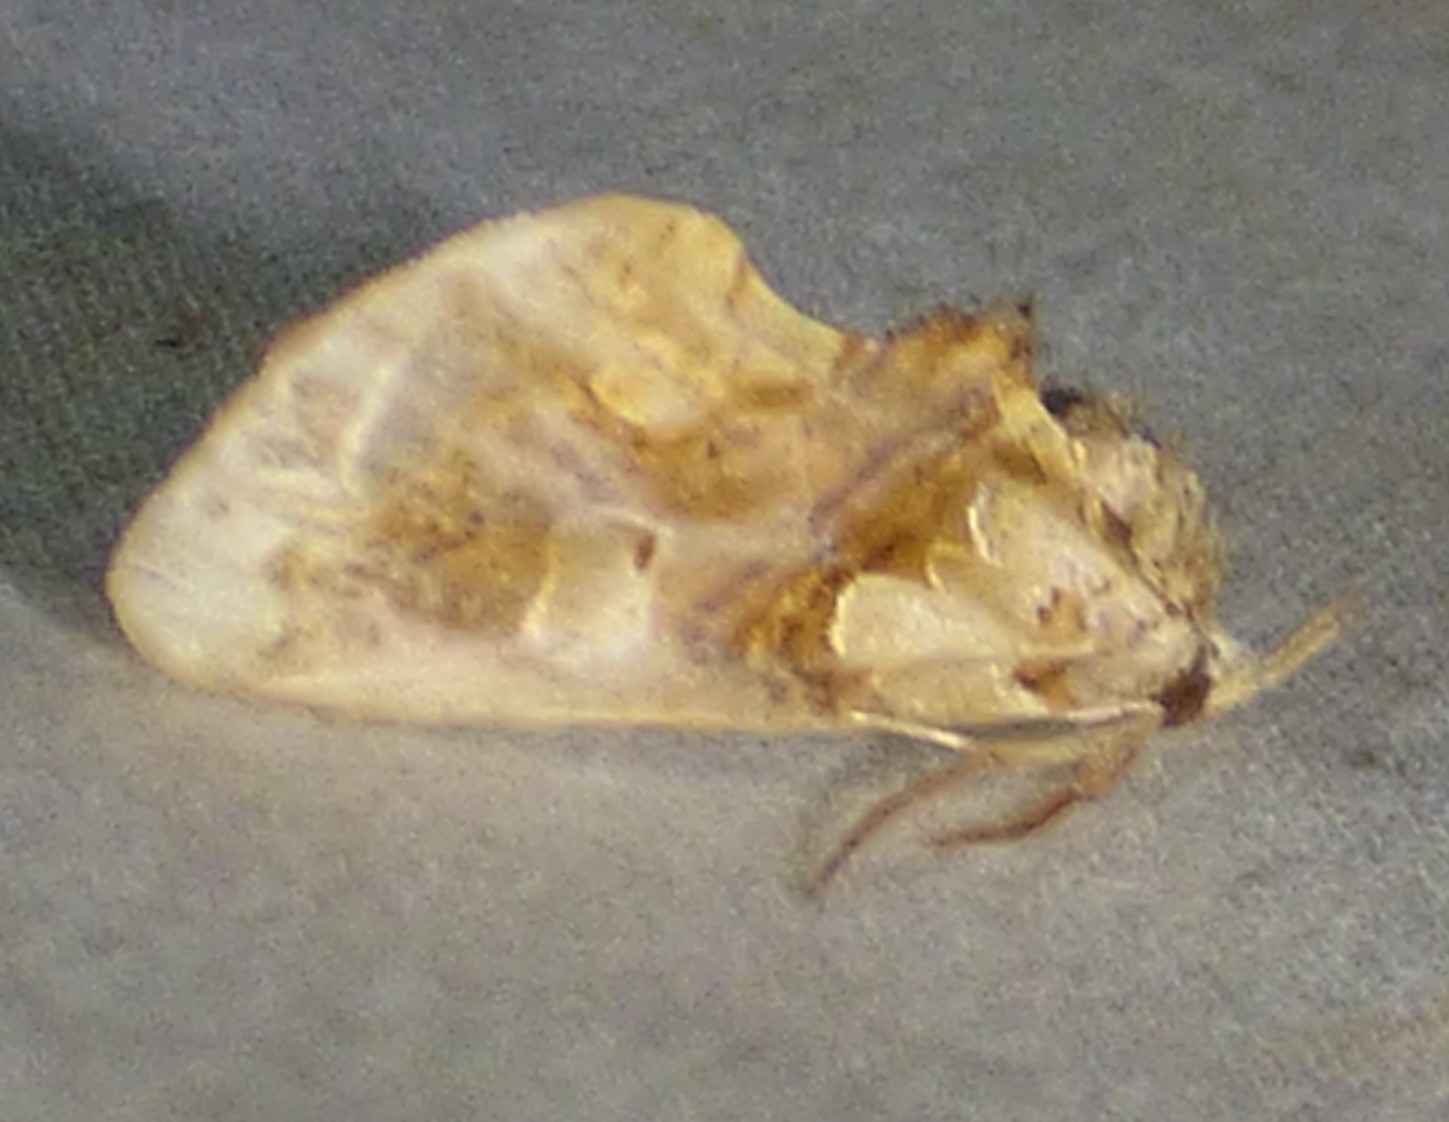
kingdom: Animalia
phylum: Arthropoda
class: Insecta
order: Lepidoptera
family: Erebidae
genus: Plusiodonta
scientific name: Plusiodonta compressipalpis
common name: Moonseed moth
